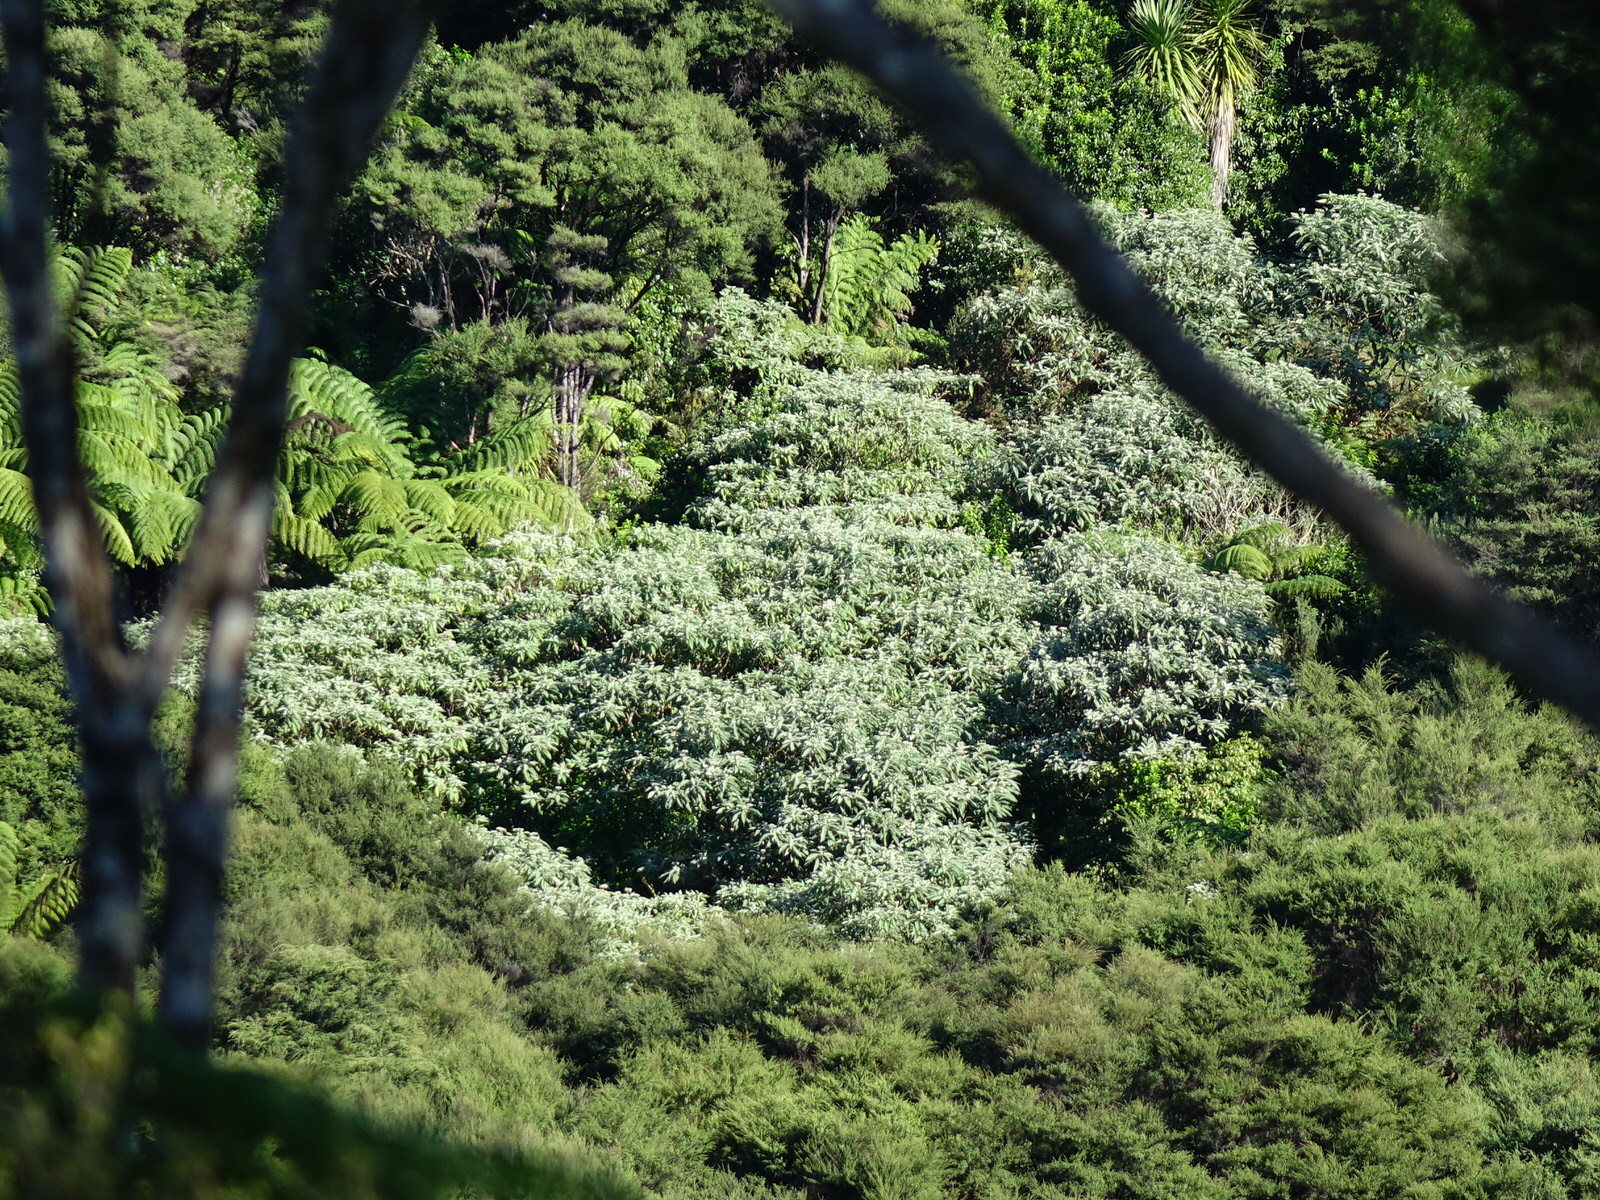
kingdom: Plantae
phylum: Tracheophyta
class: Magnoliopsida
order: Solanales
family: Solanaceae
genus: Solanum
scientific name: Solanum mauritianum
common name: Earleaf nightshade
